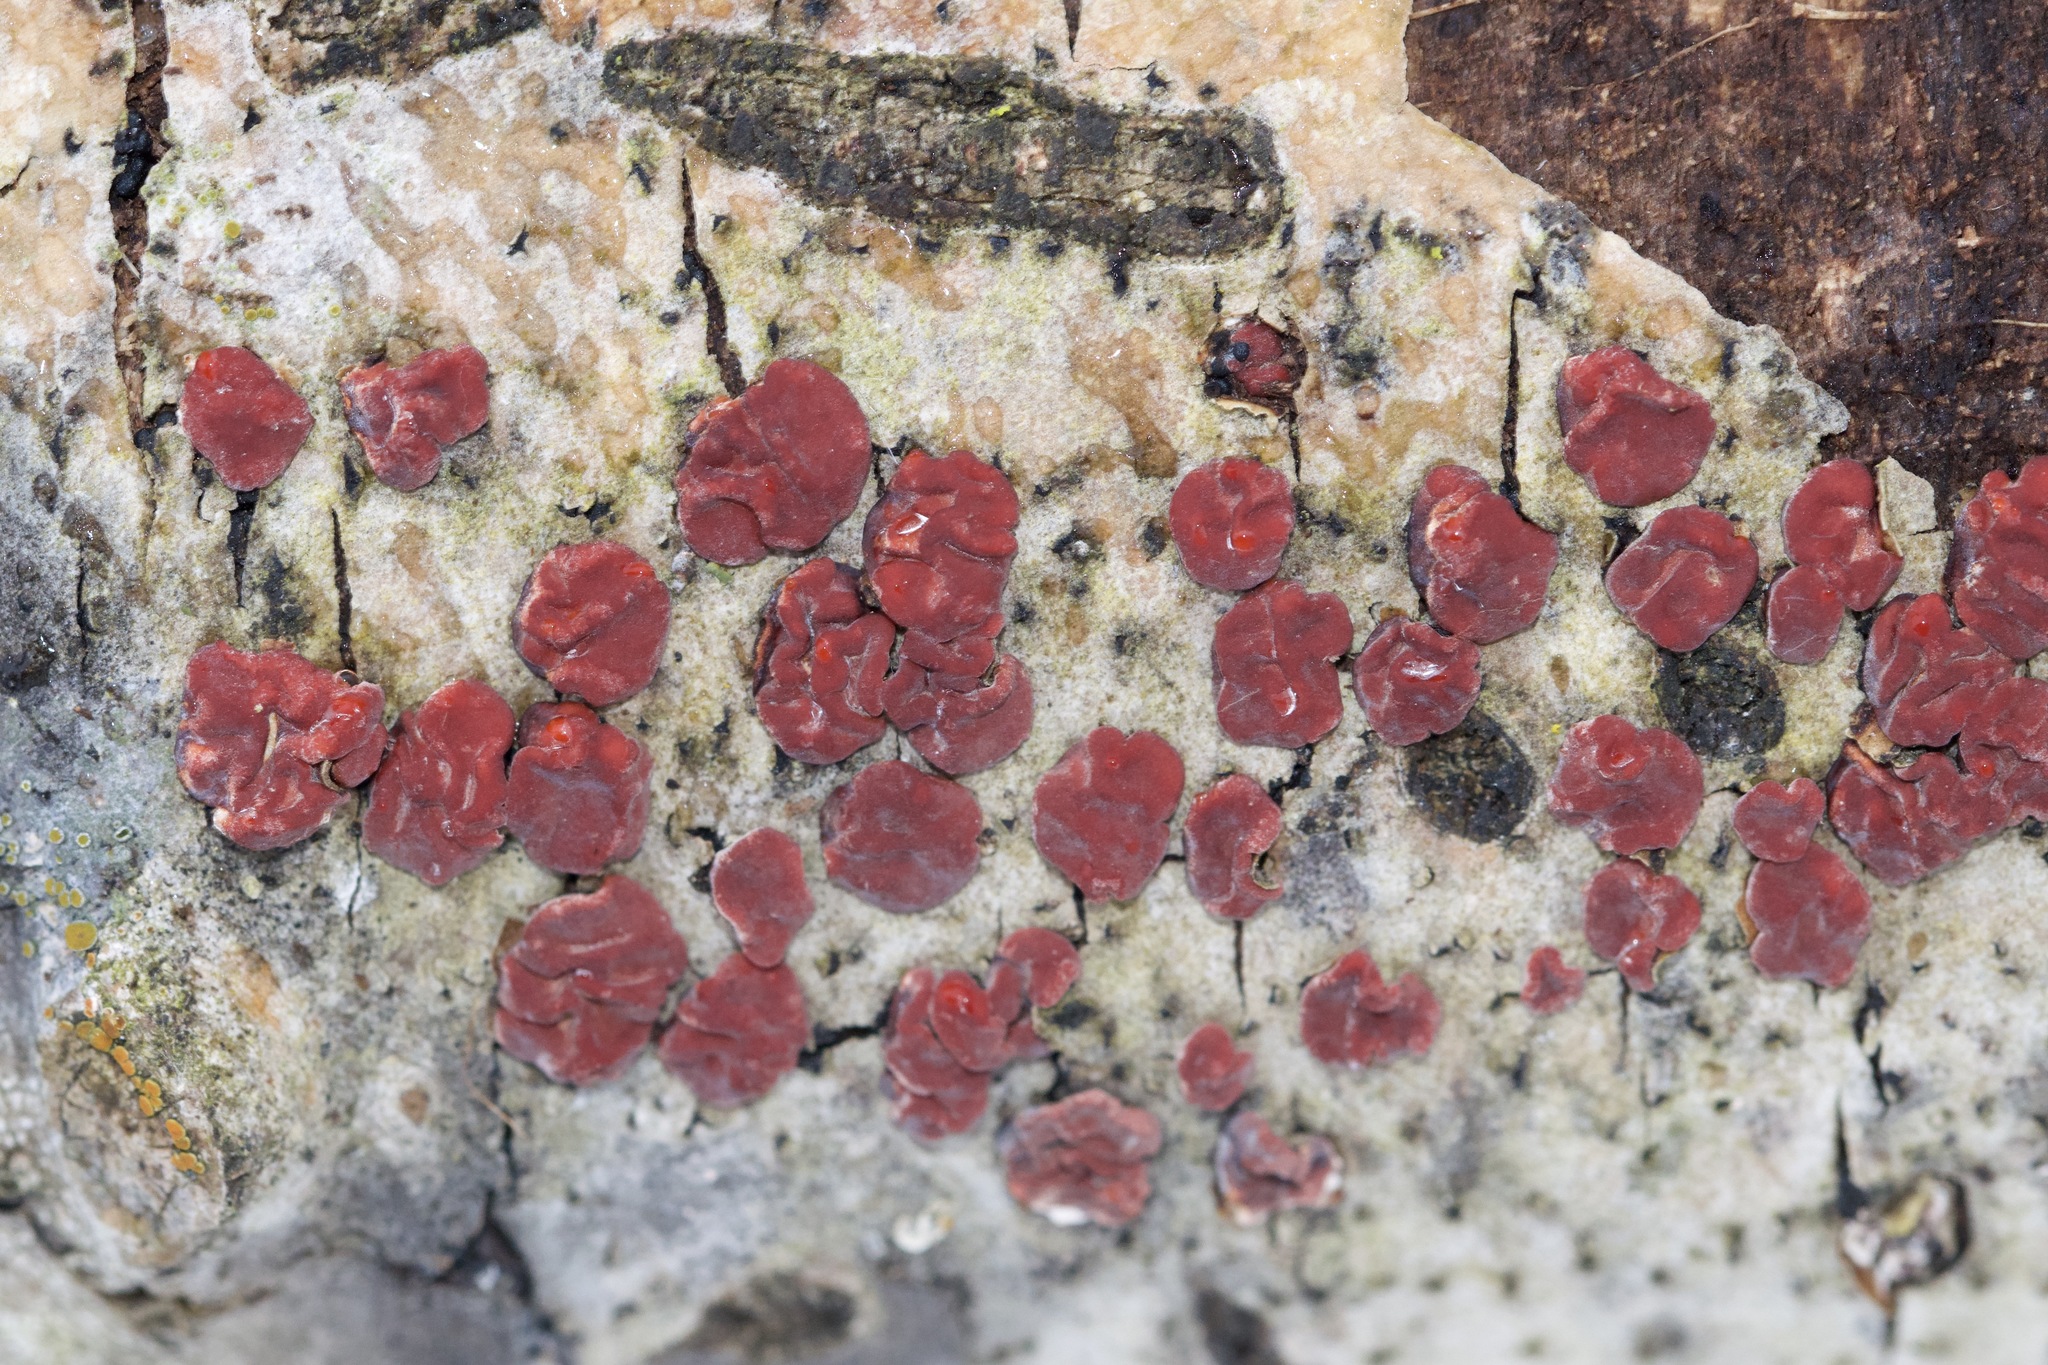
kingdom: Fungi
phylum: Basidiomycota
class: Agaricomycetes
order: Russulales
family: Peniophoraceae
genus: Peniophora
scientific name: Peniophora rufa
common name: Red tree brain fungus
